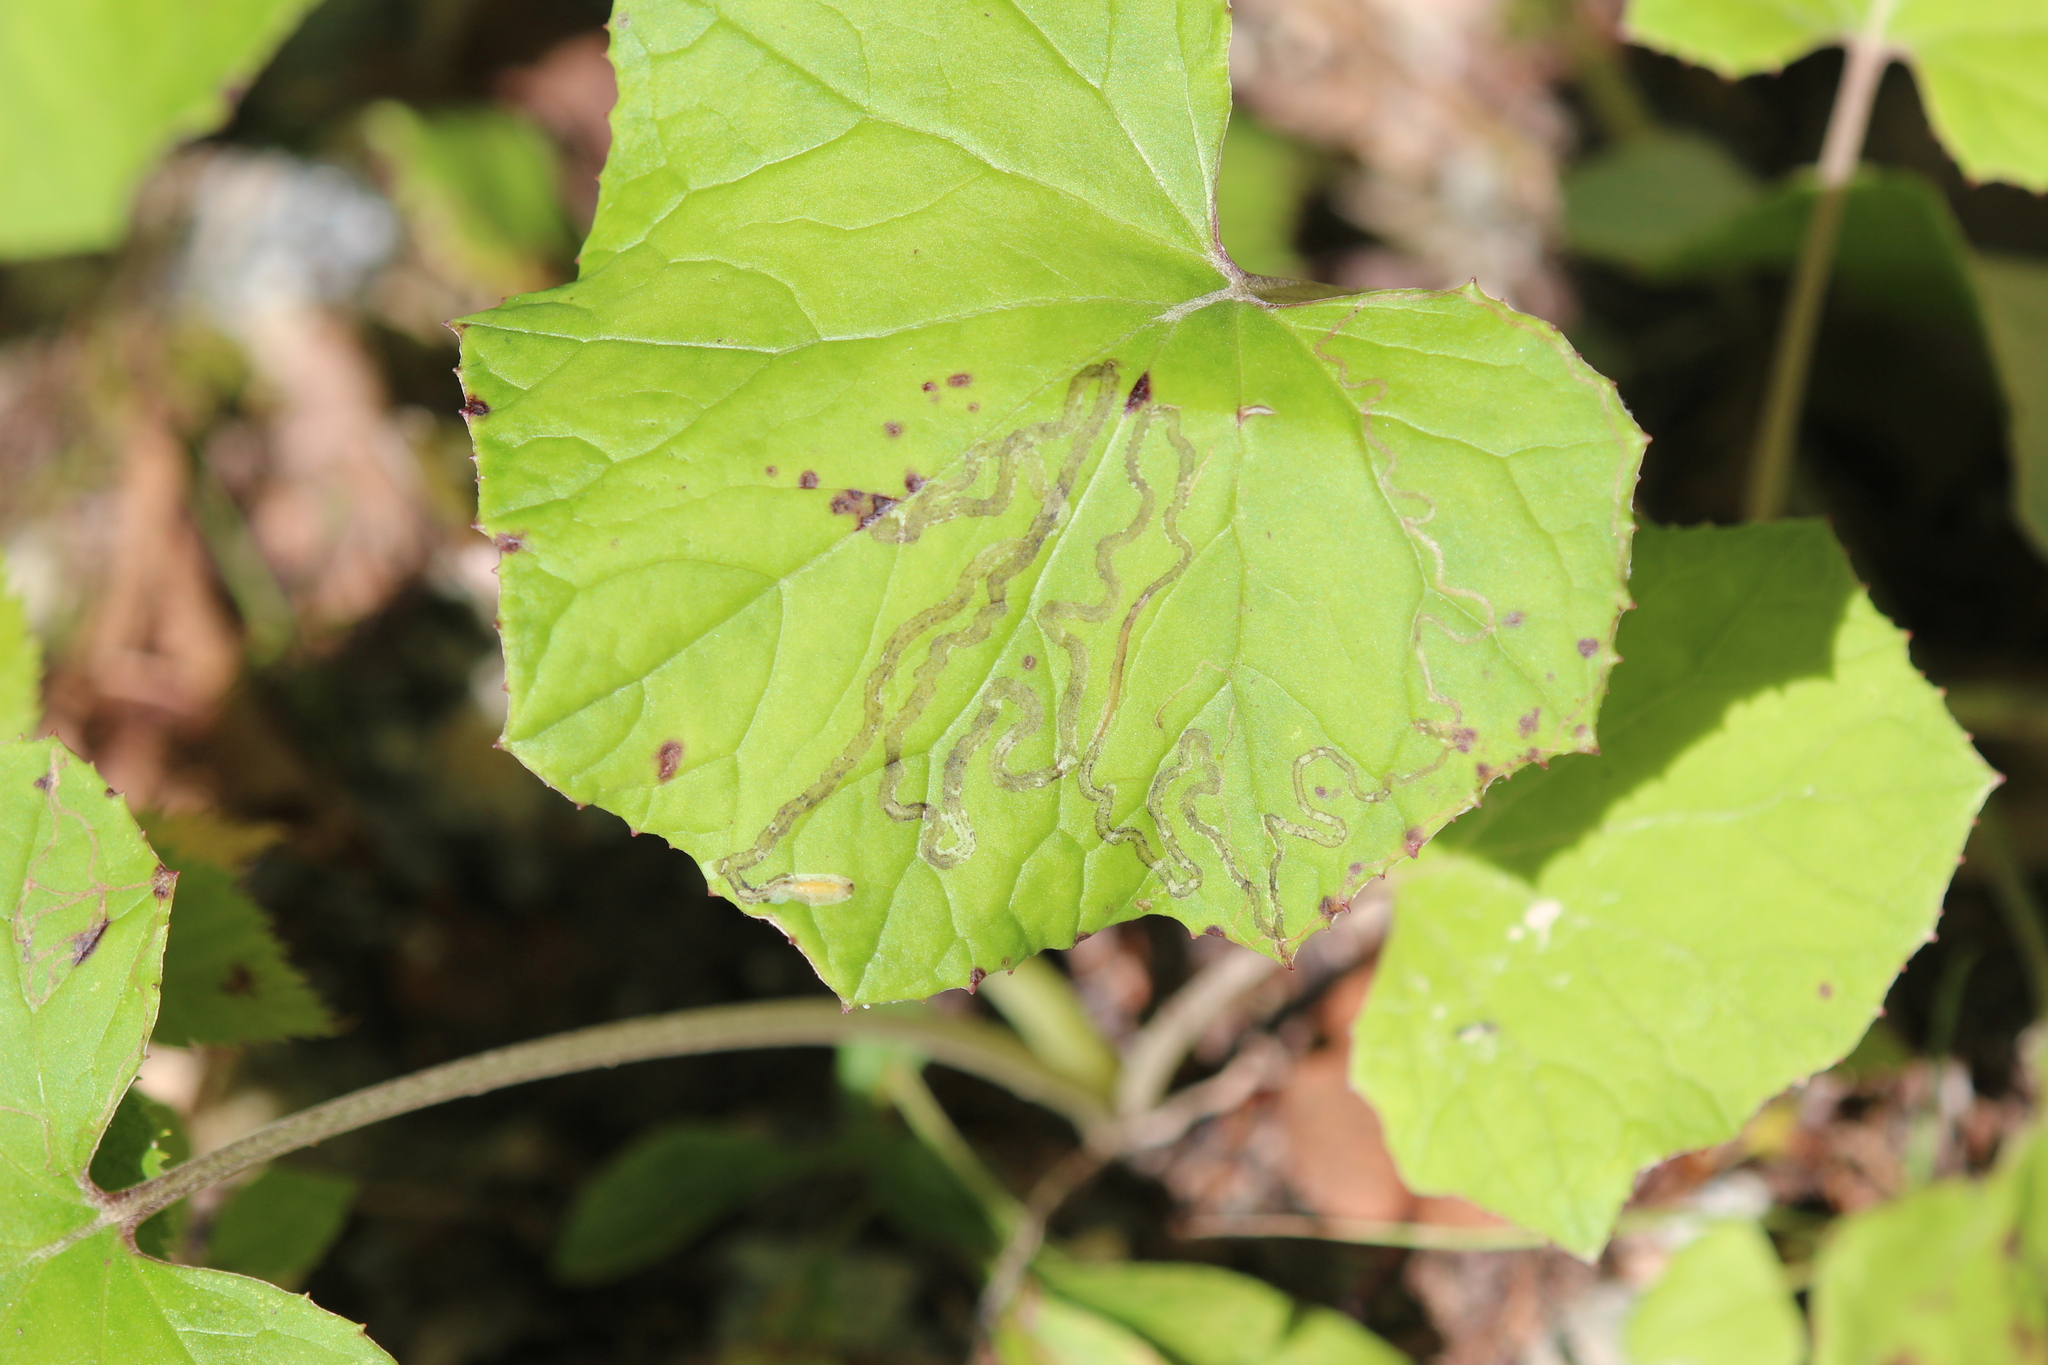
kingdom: Animalia
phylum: Arthropoda
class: Insecta
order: Lepidoptera
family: Gracillariidae
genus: Phyllocnistis
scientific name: Phyllocnistis insignis
